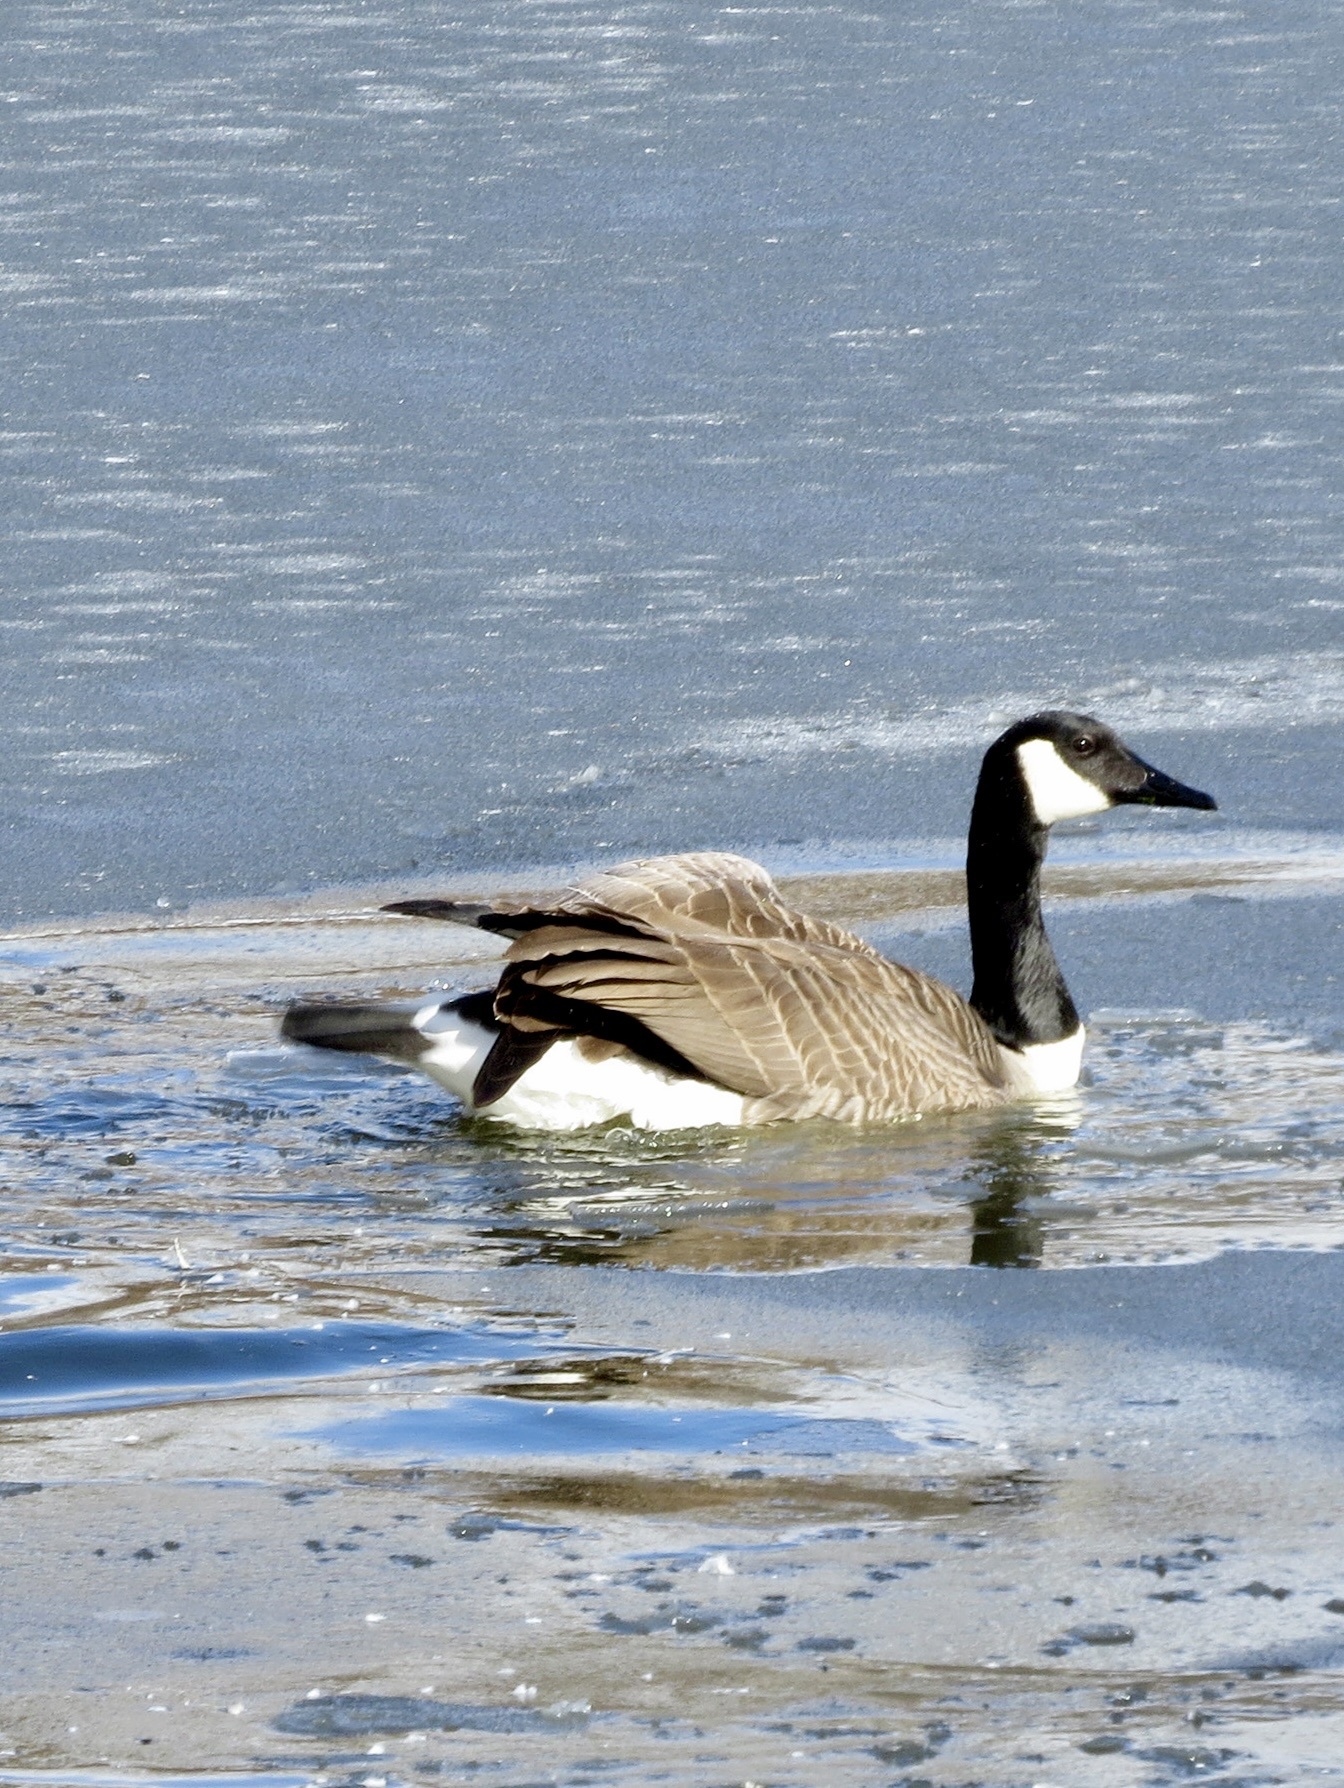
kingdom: Animalia
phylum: Chordata
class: Aves
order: Anseriformes
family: Anatidae
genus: Branta
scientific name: Branta canadensis
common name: Canada goose
